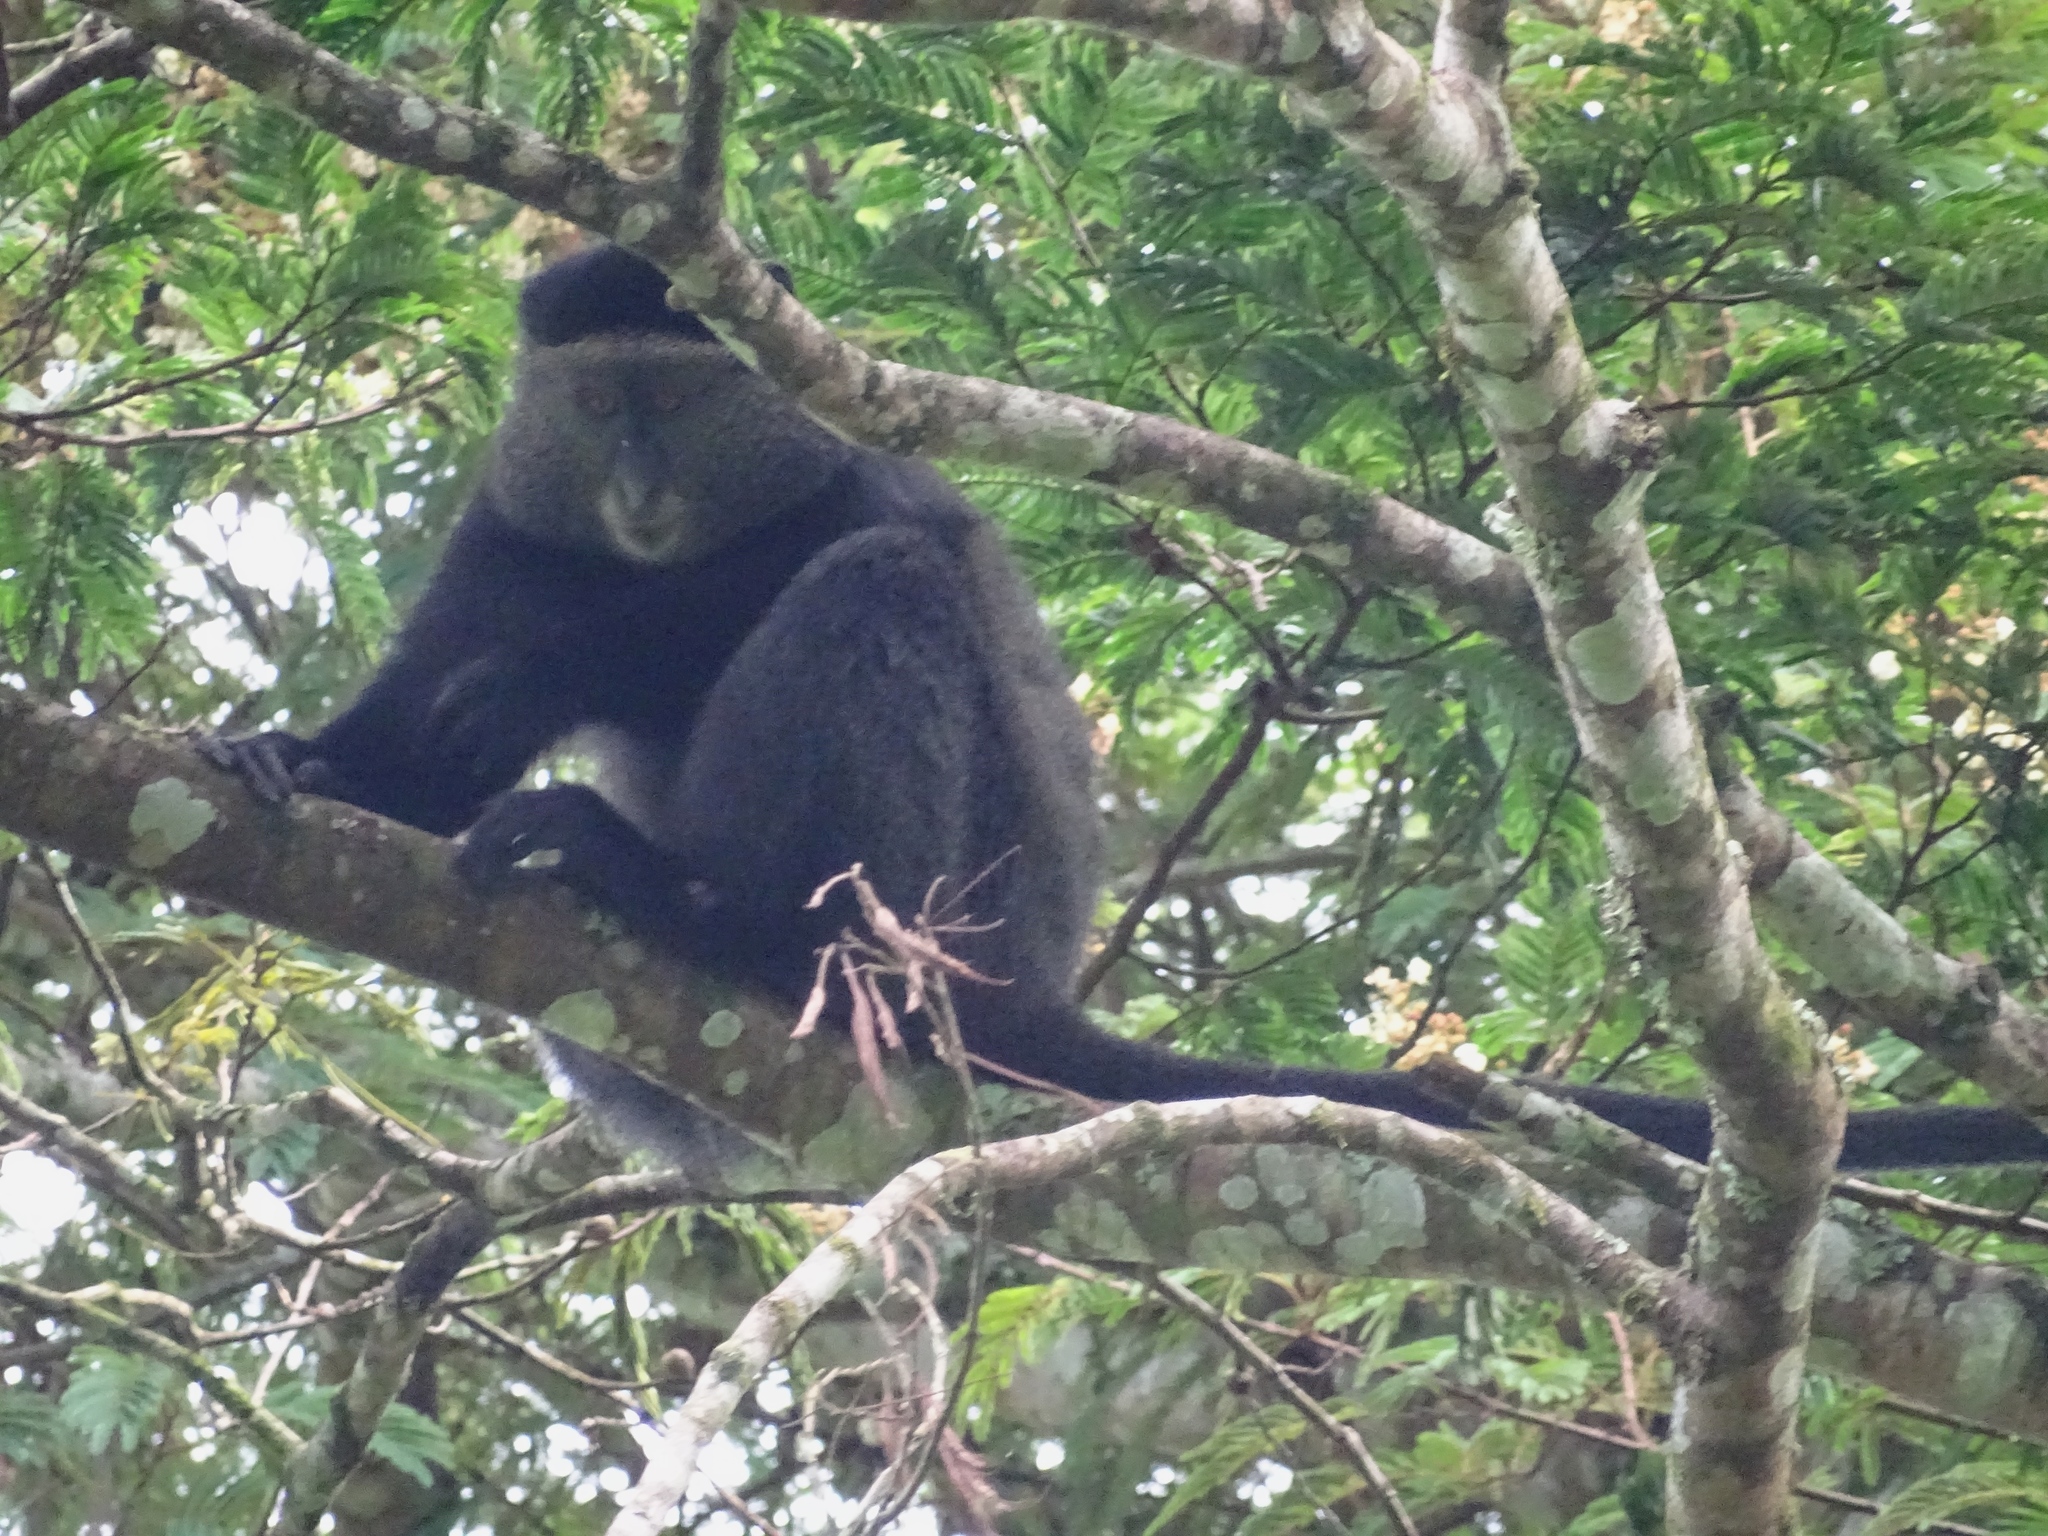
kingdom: Animalia
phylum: Chordata
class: Mammalia
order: Primates
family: Cercopithecidae
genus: Cercopithecus
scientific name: Cercopithecus mitis
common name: Blue monkey
